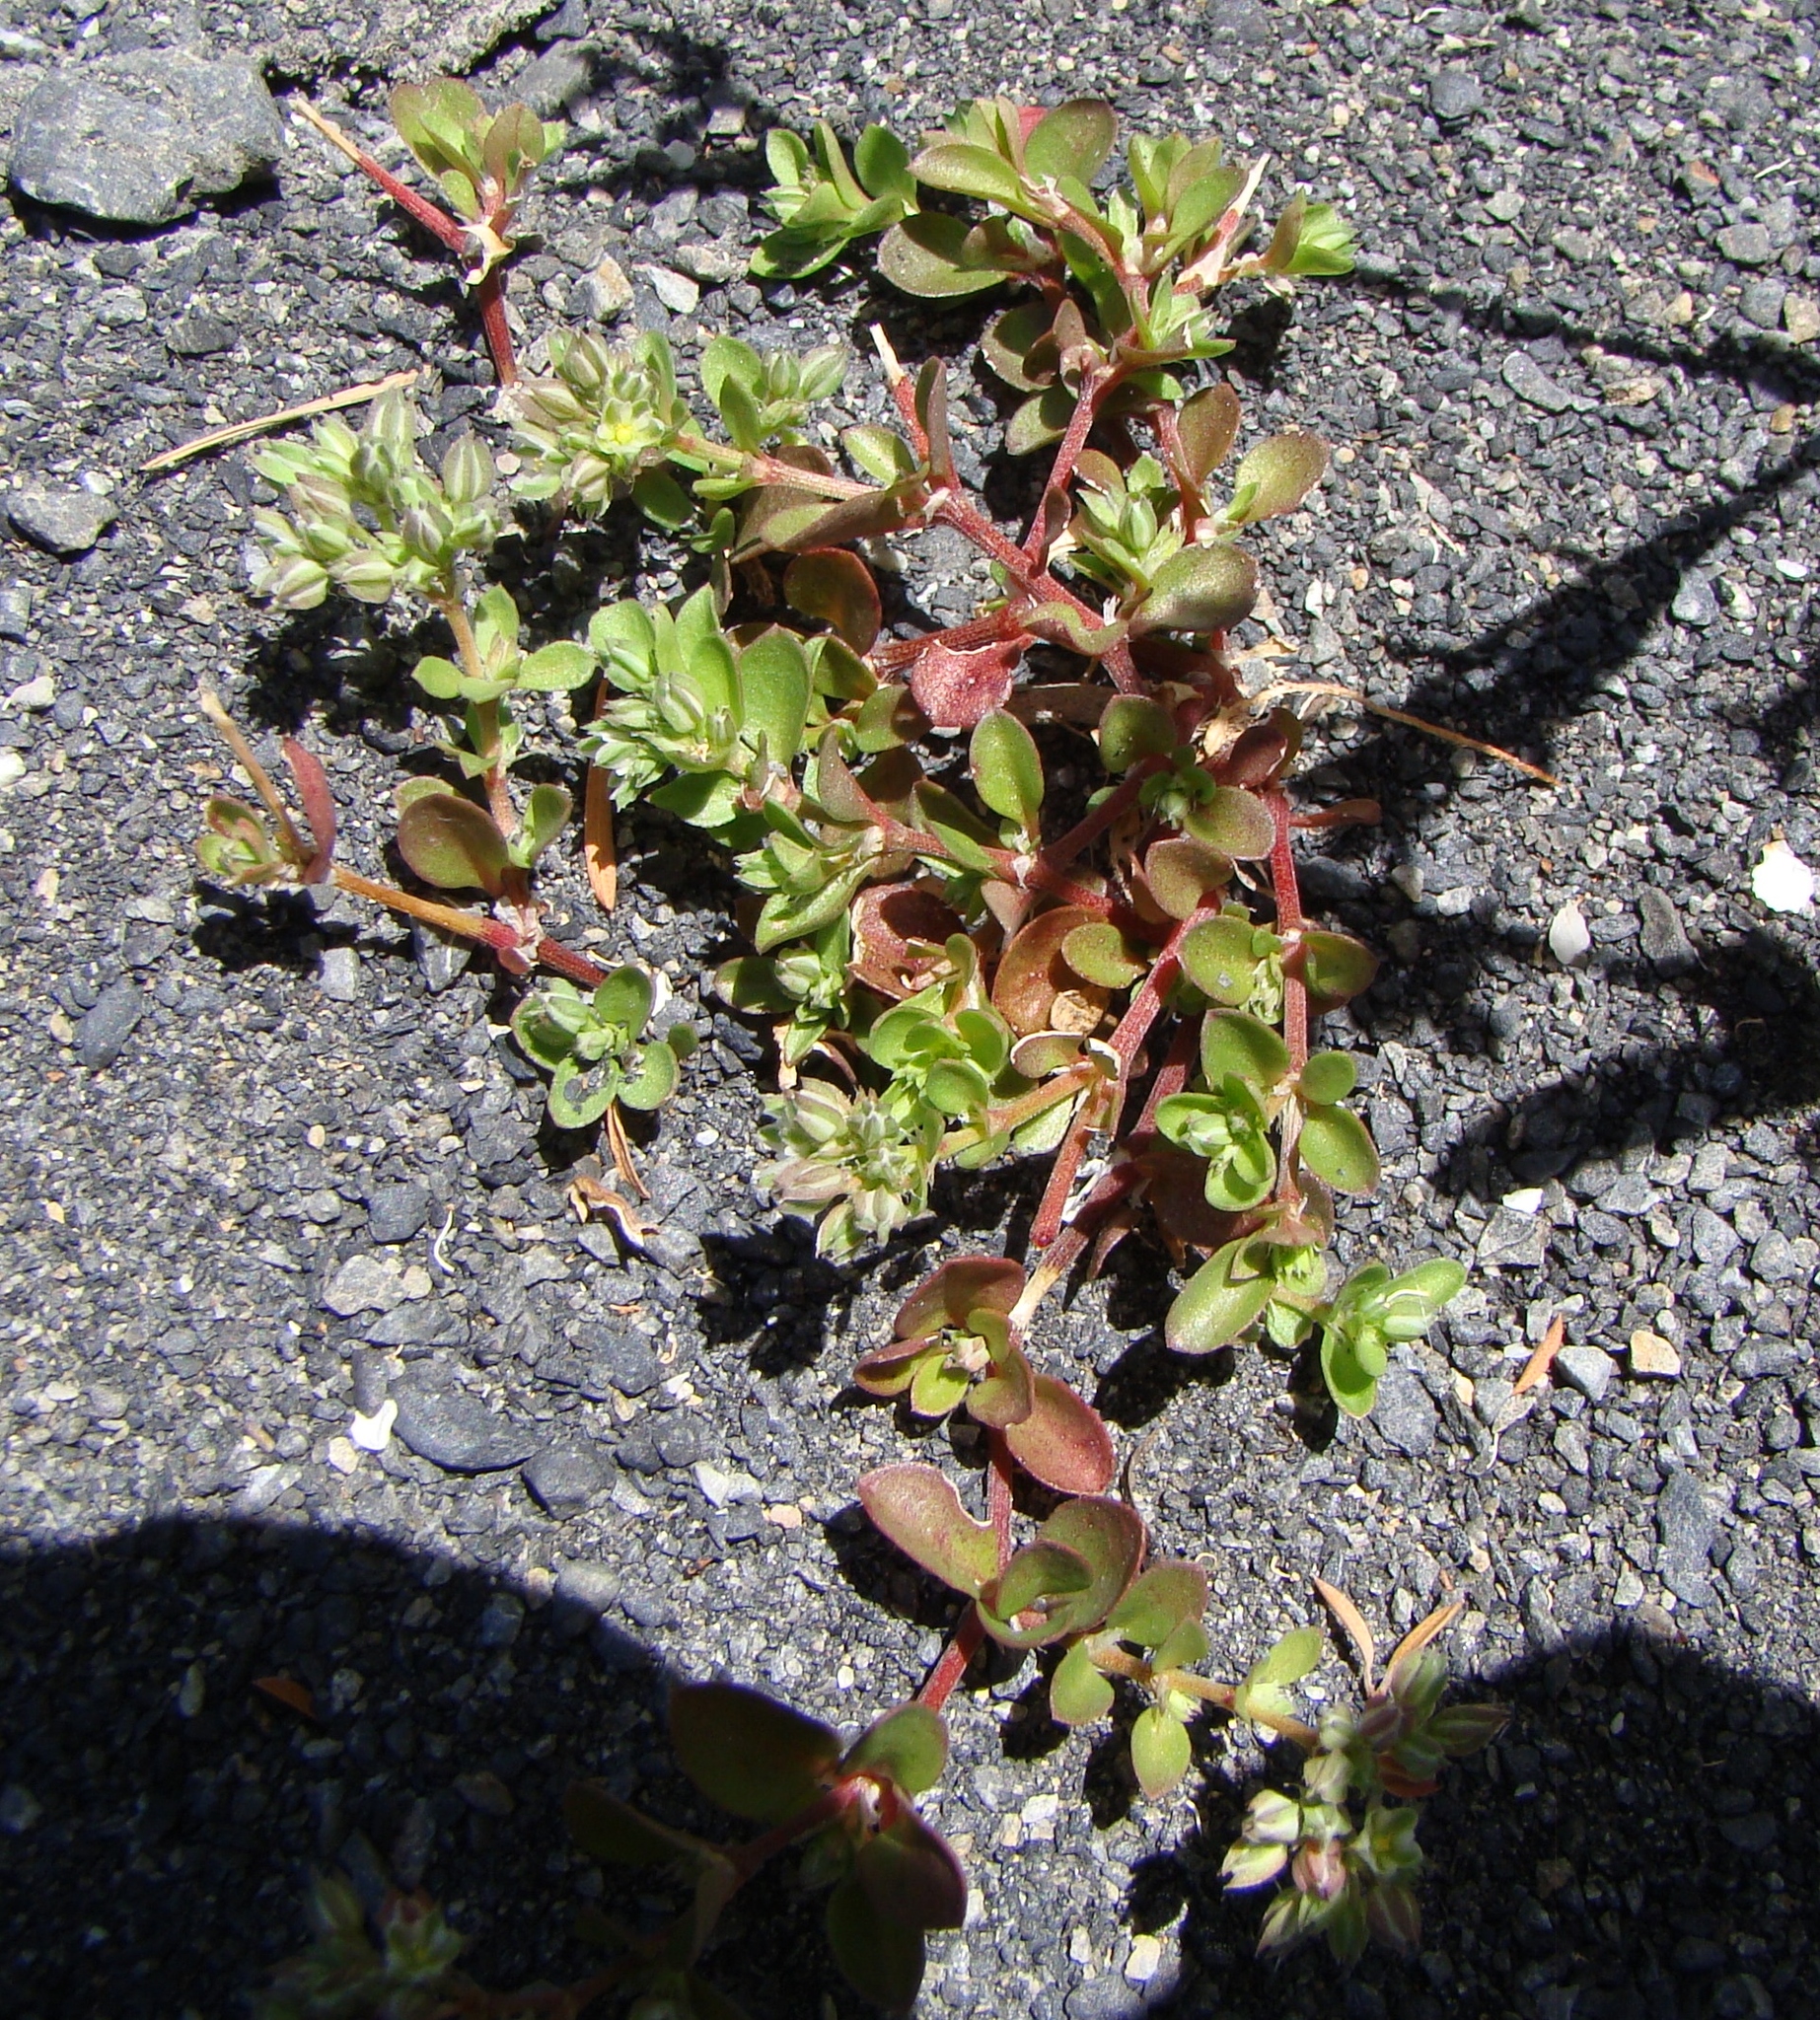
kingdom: Plantae
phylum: Tracheophyta
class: Magnoliopsida
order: Caryophyllales
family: Caryophyllaceae
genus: Polycarpon
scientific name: Polycarpon tetraphyllum
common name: Four-leaved all-seed
